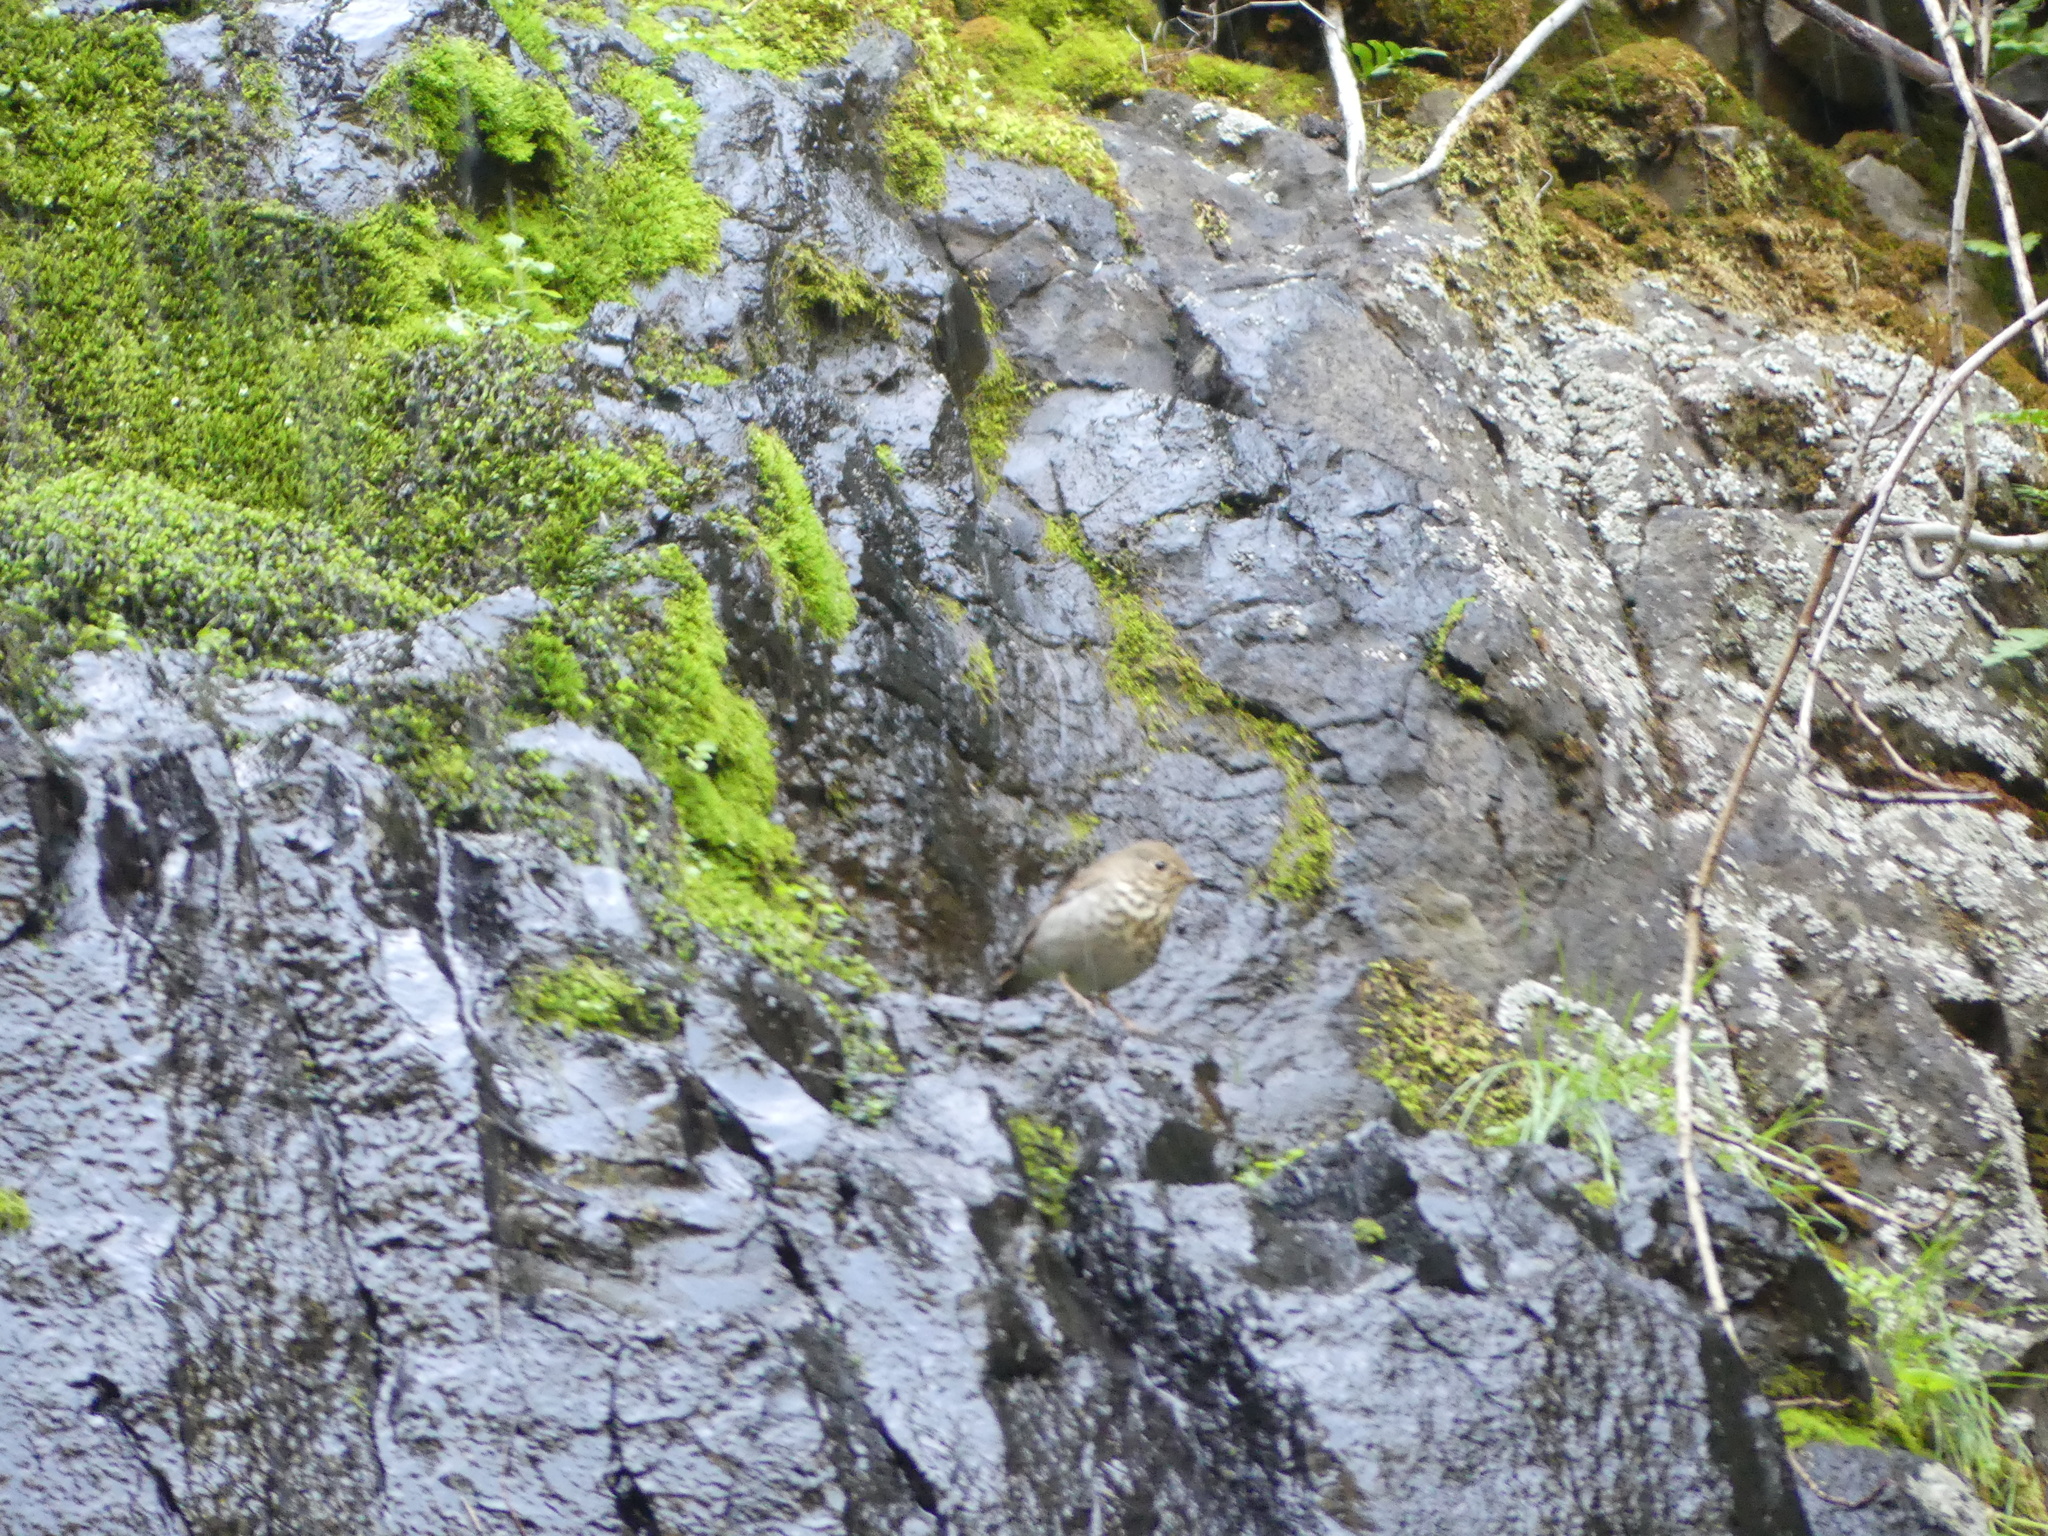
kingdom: Animalia
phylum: Chordata
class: Aves
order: Passeriformes
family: Turdidae
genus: Catharus
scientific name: Catharus guttatus
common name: Hermit thrush
